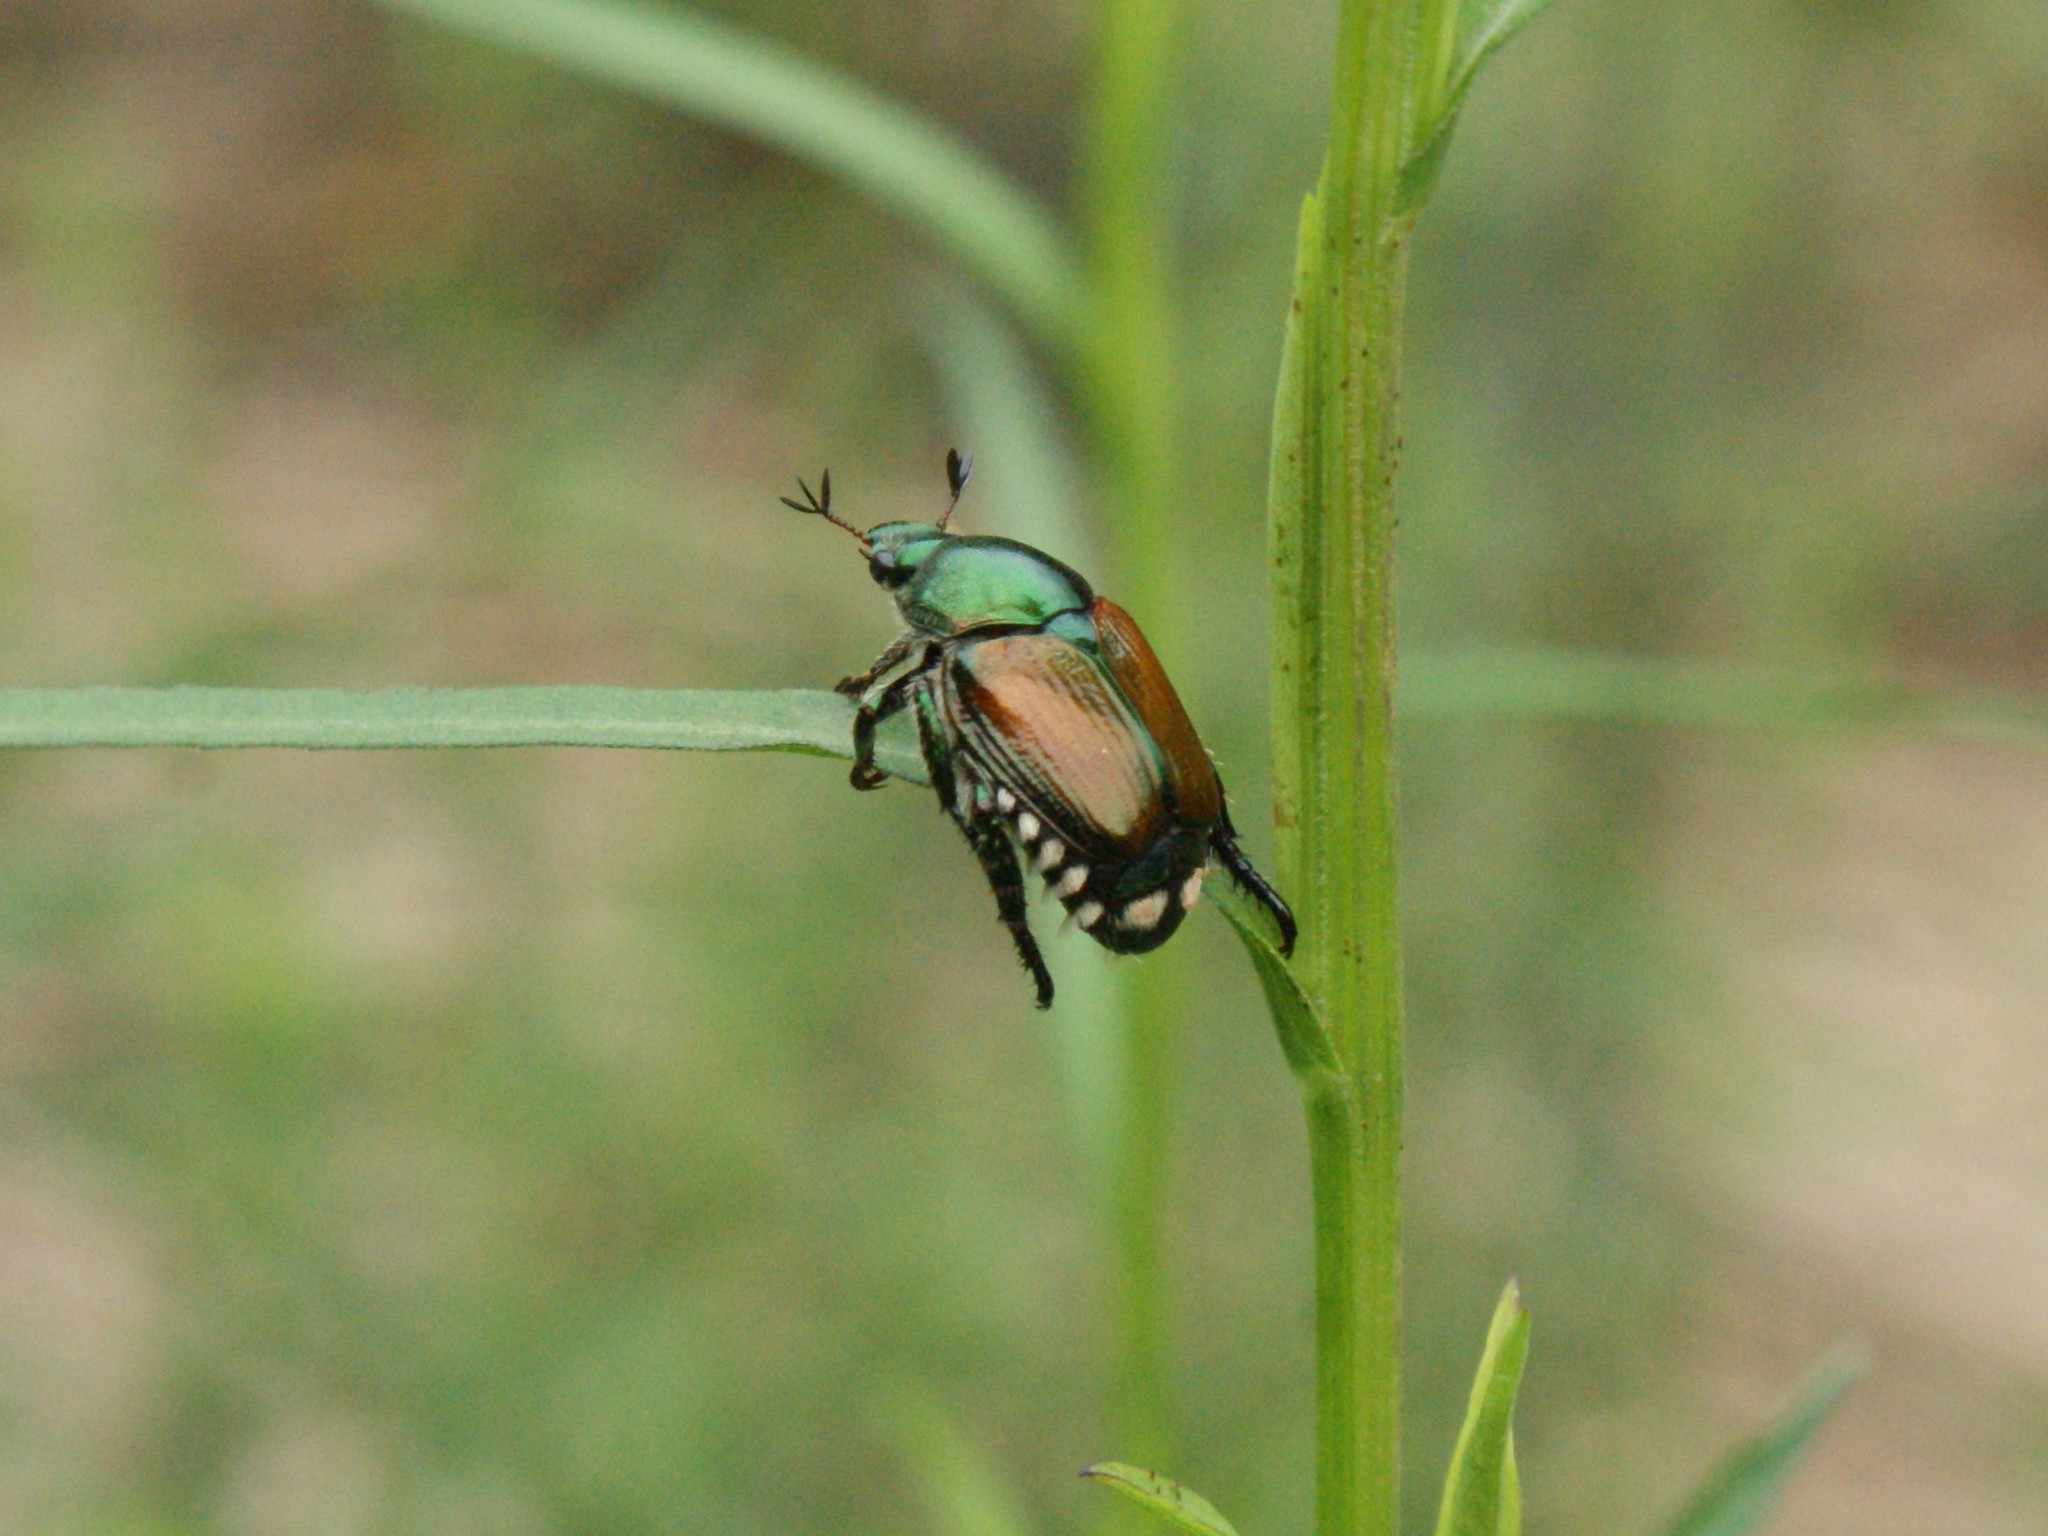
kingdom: Animalia
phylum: Arthropoda
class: Insecta
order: Coleoptera
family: Scarabaeidae
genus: Popillia
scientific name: Popillia japonica
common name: Japanese beetle
